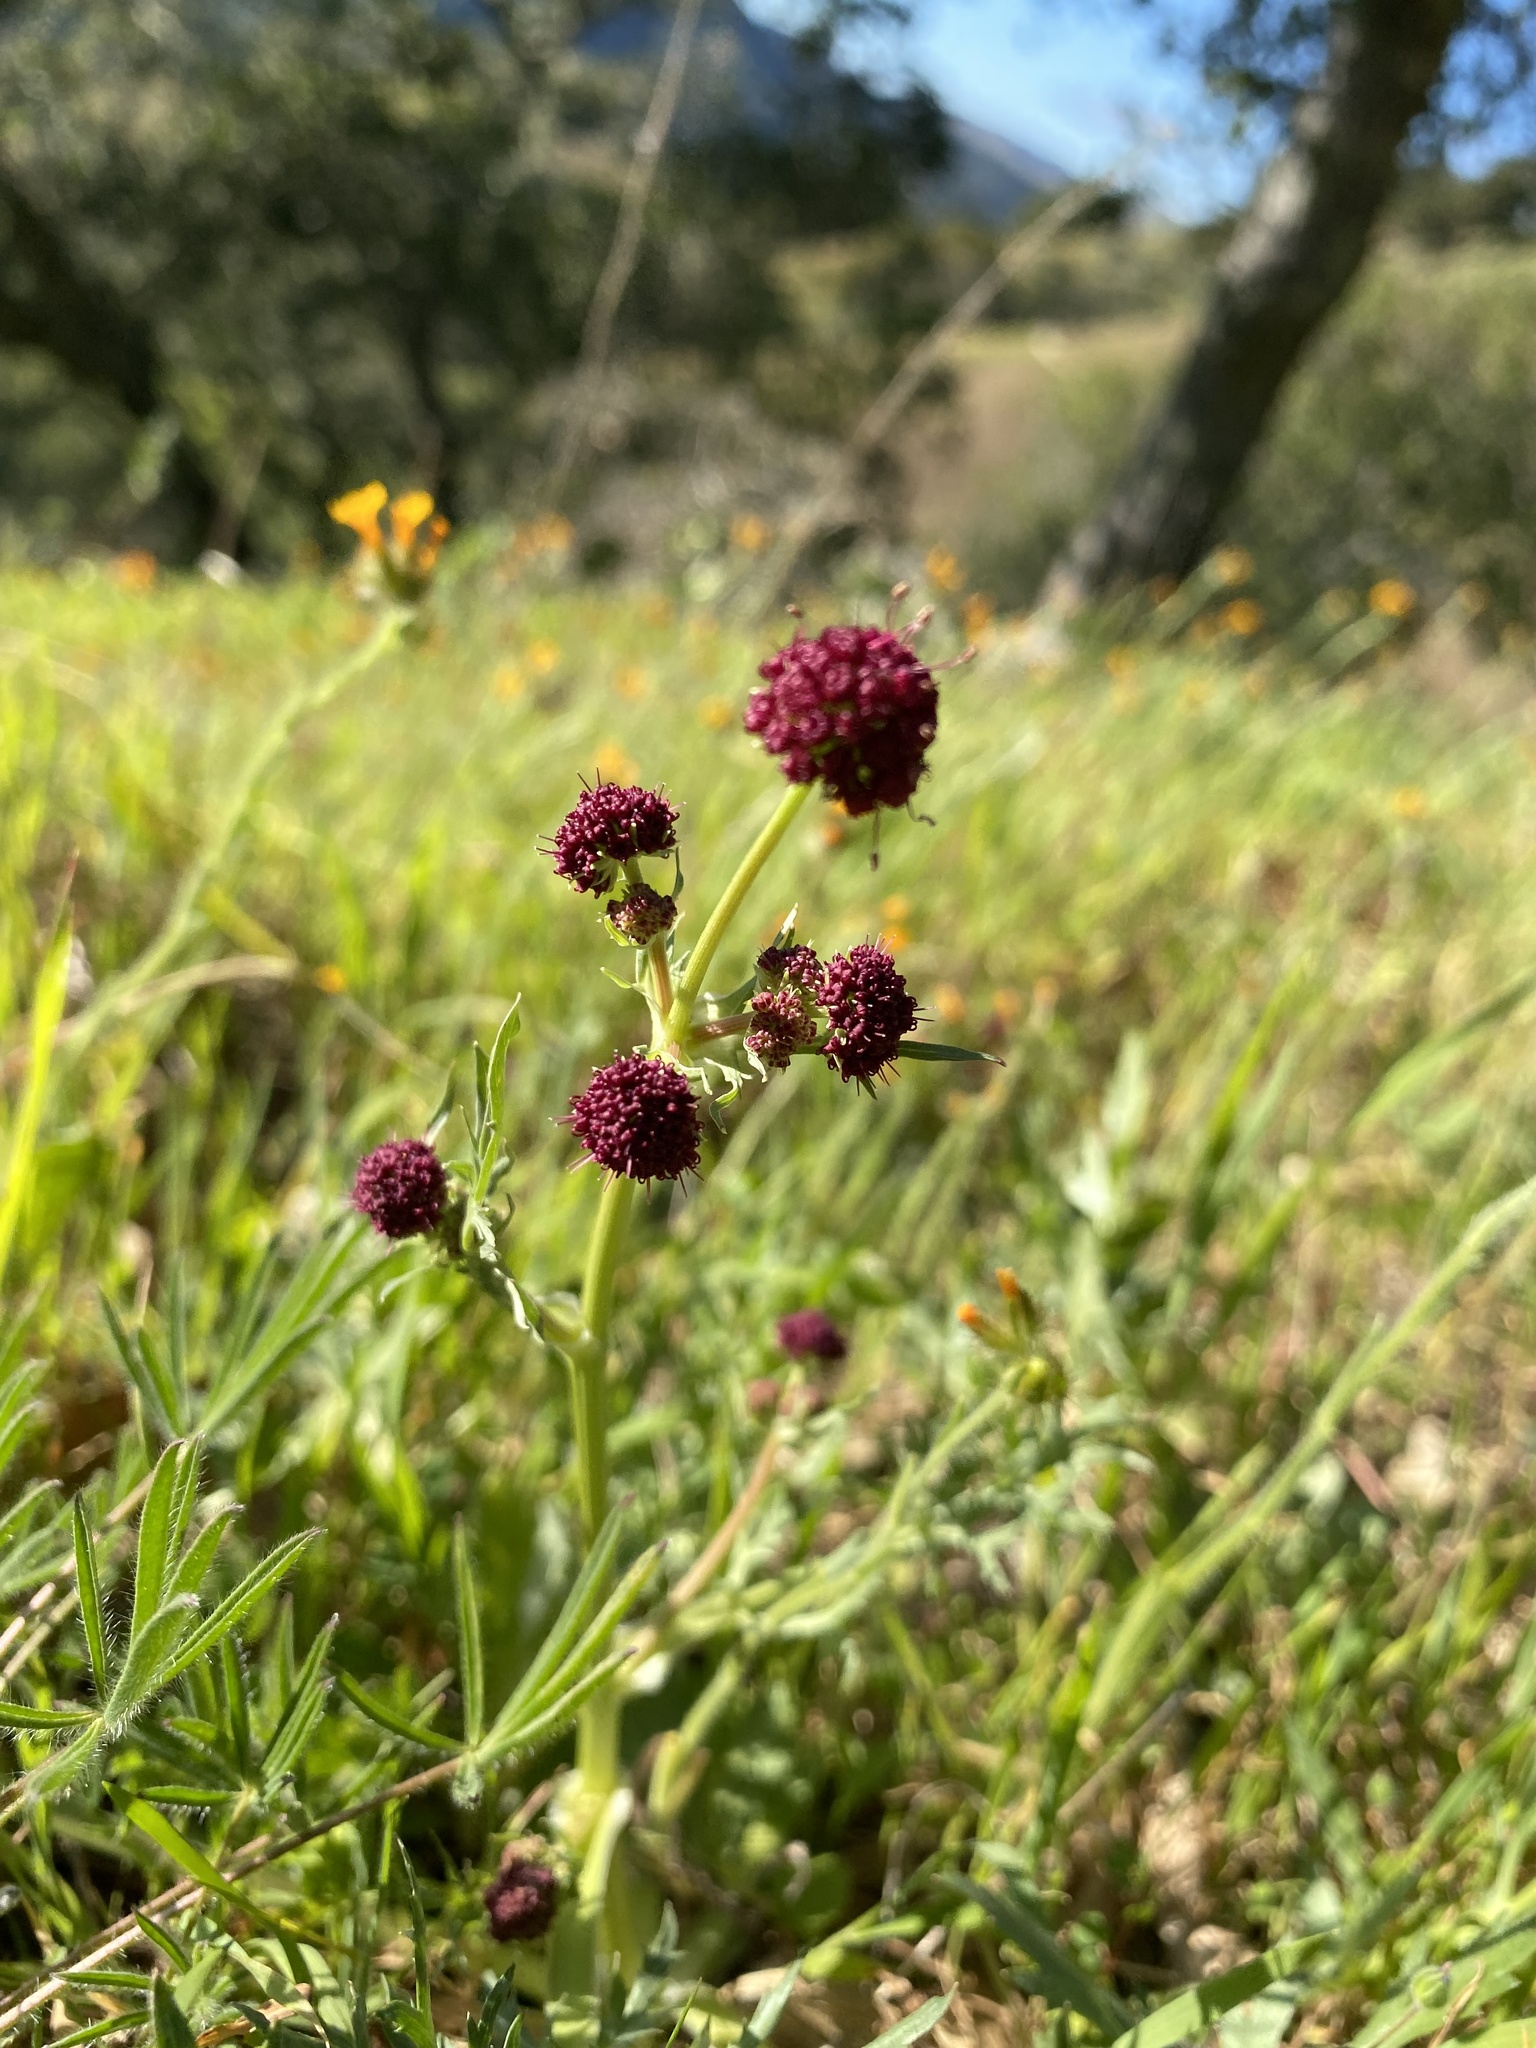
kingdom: Plantae
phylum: Tracheophyta
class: Magnoliopsida
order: Apiales
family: Apiaceae
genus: Sanicula
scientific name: Sanicula bipinnatifida
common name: Shoe-buttons
